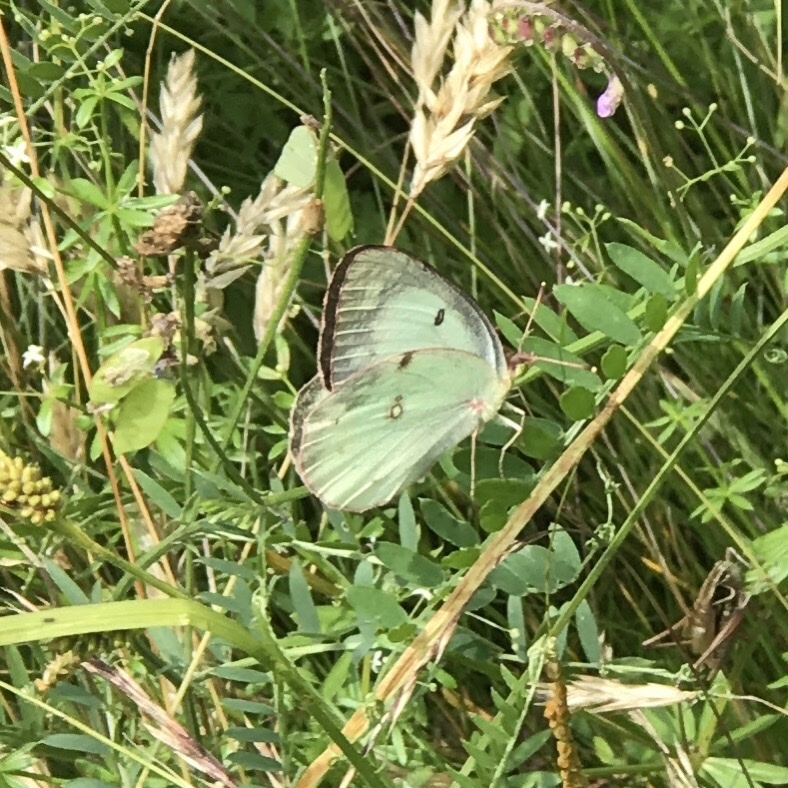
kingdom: Animalia
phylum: Arthropoda
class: Insecta
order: Lepidoptera
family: Pieridae
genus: Colias
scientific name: Colias philodice
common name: Clouded sulphur
